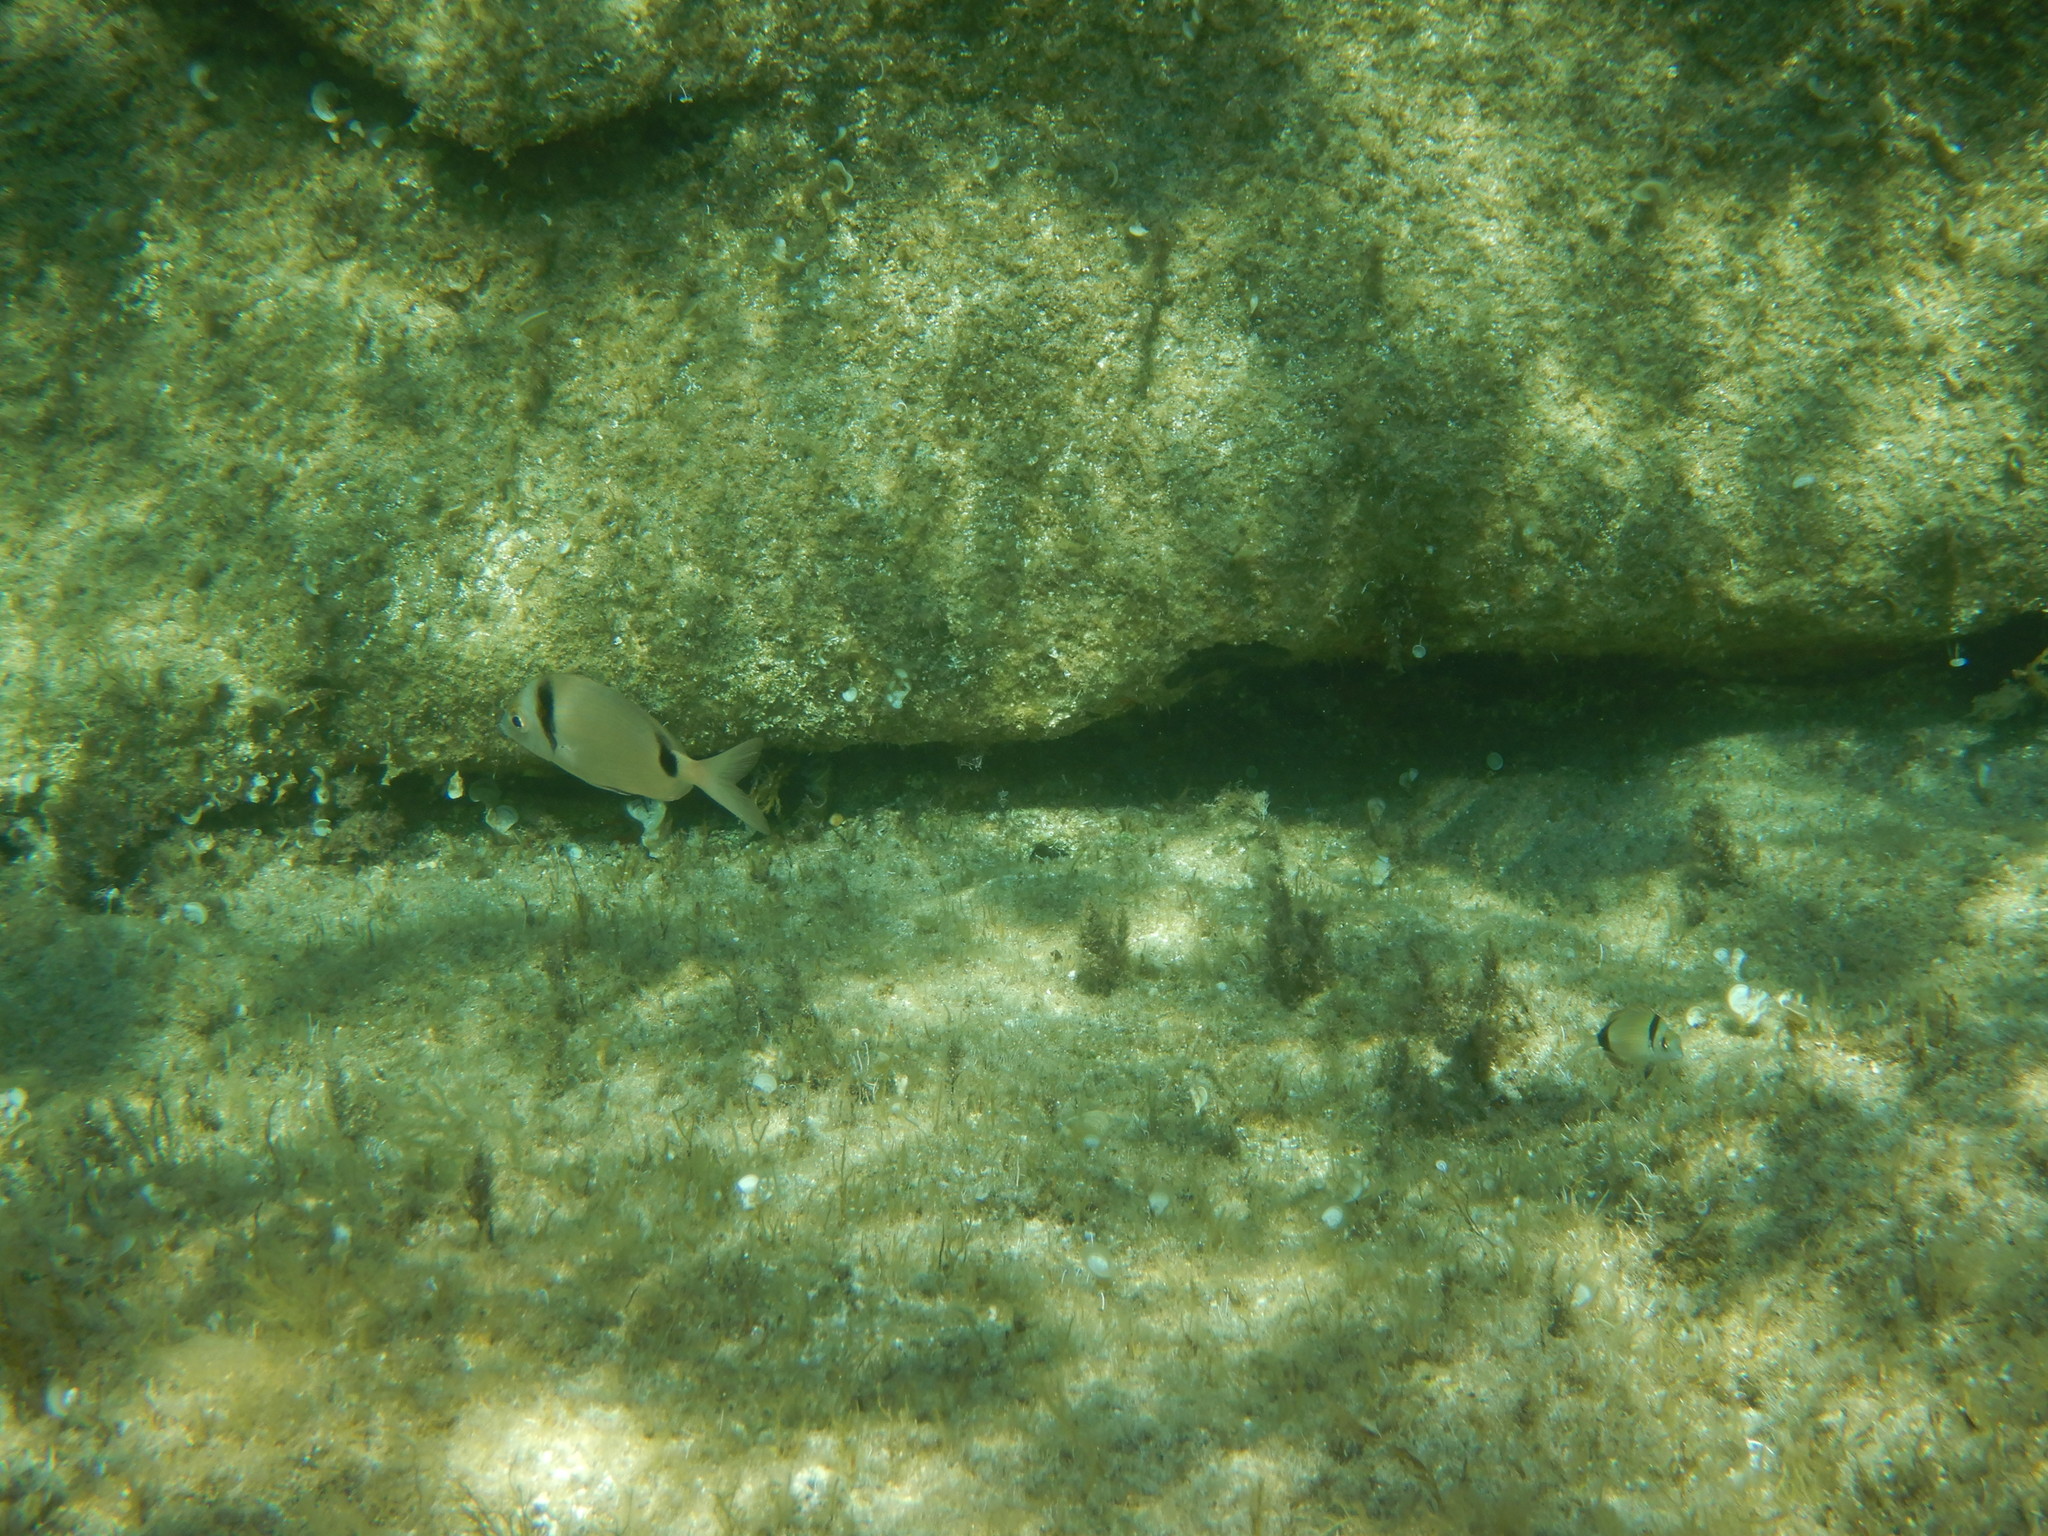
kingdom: Animalia
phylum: Chordata
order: Perciformes
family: Sparidae
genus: Diplodus
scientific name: Diplodus vulgaris
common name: Common two-banded seabream
